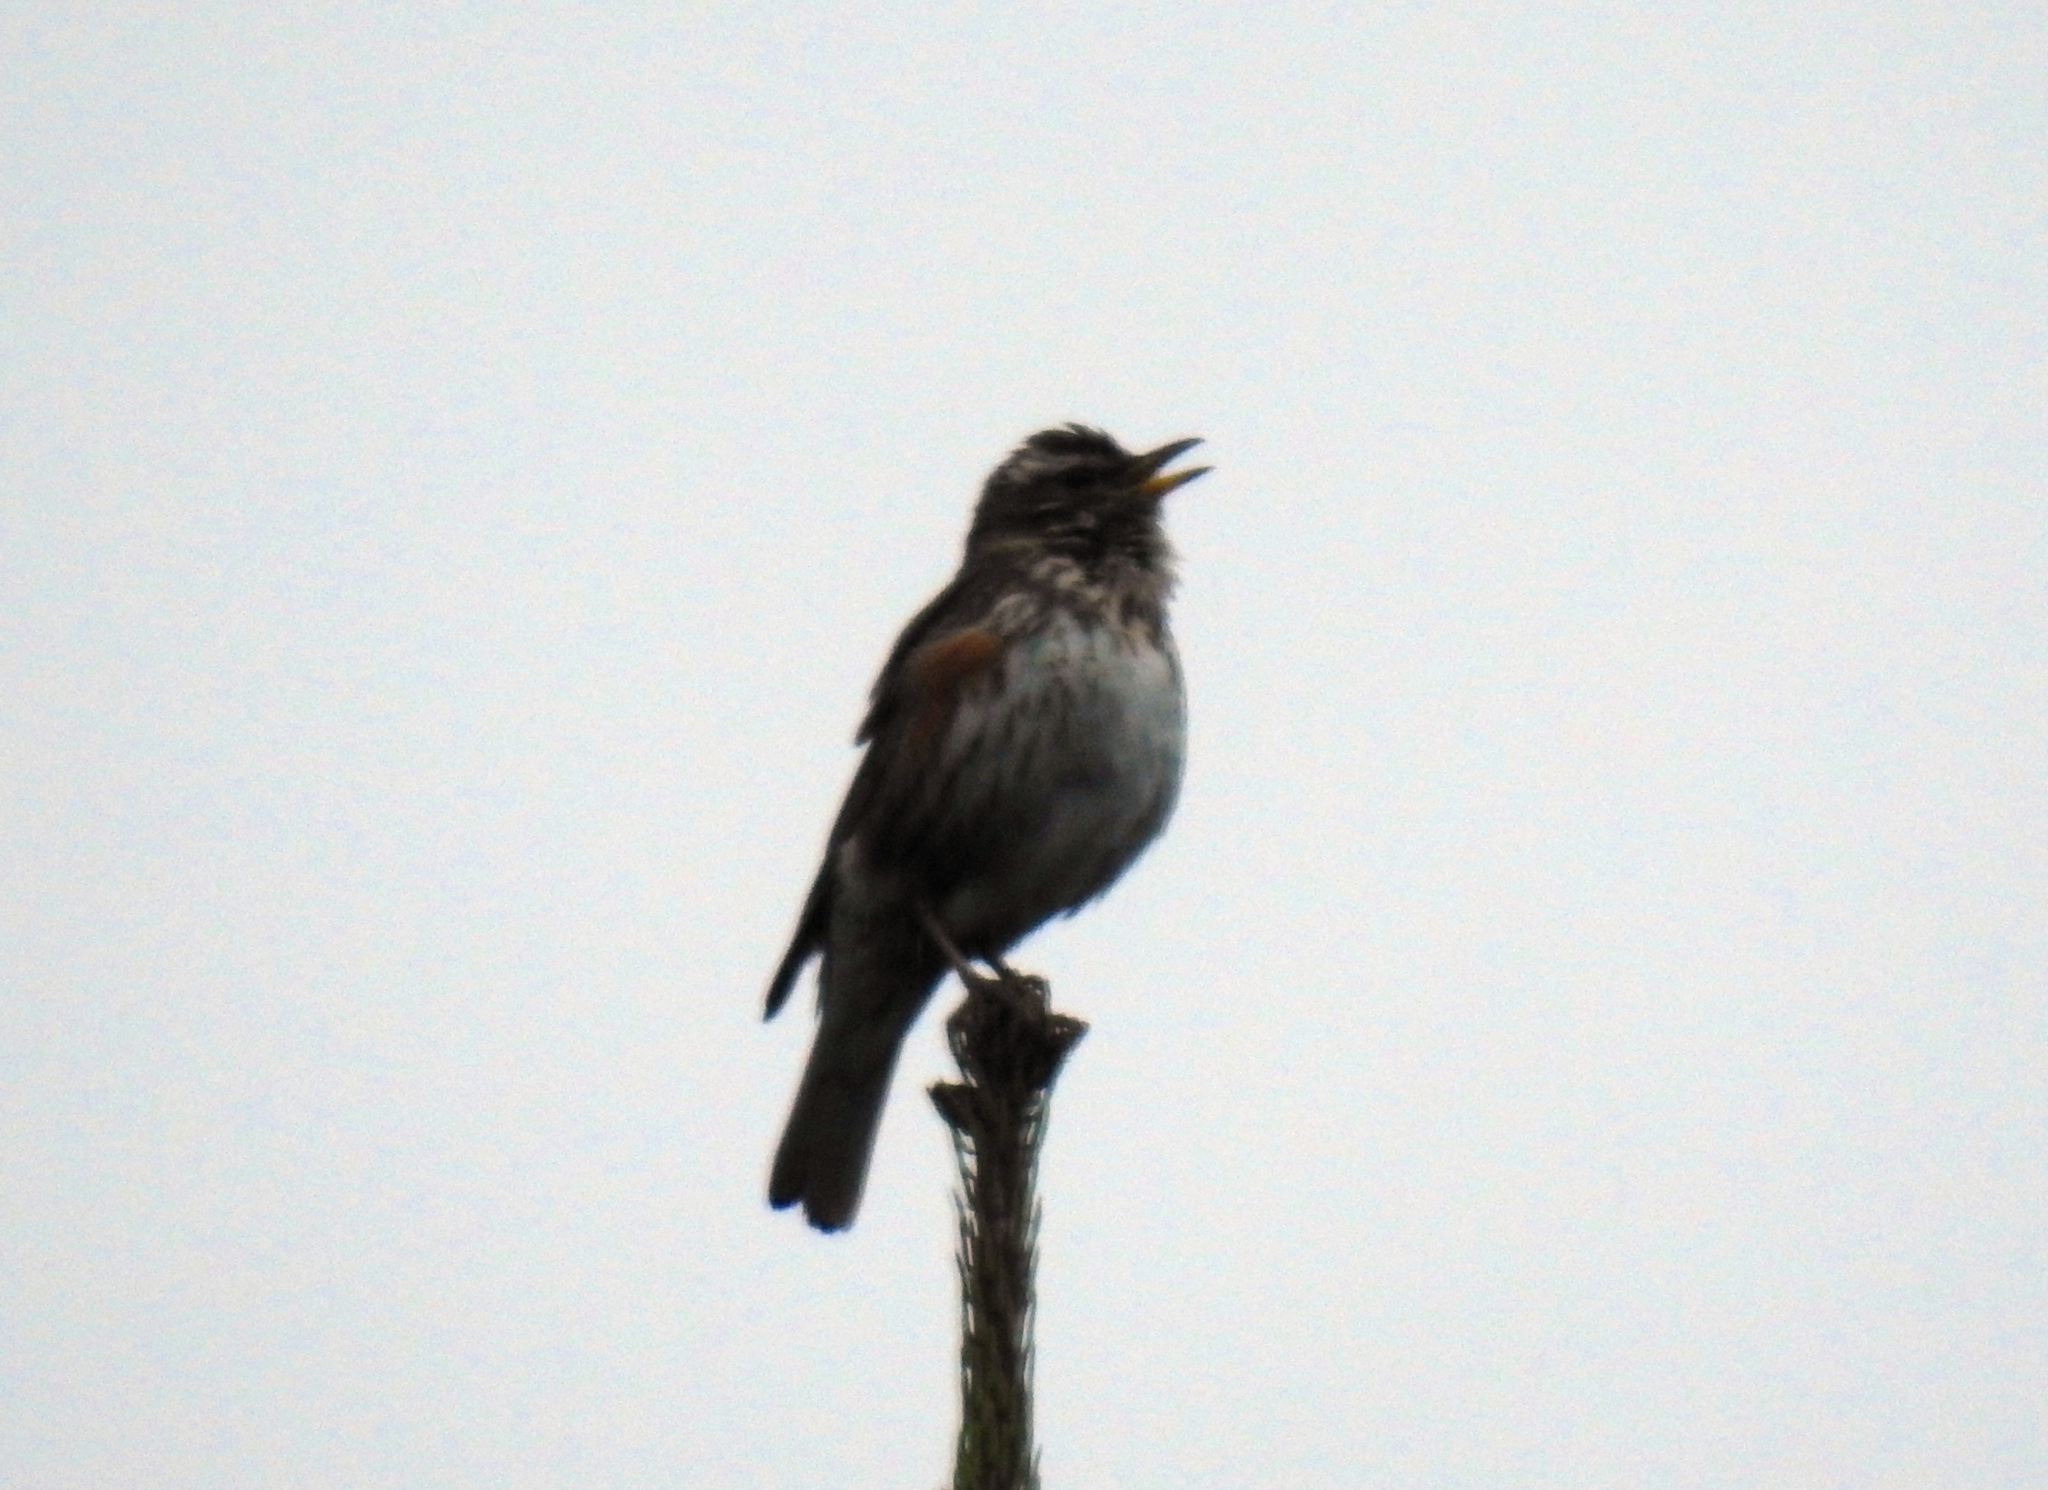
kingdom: Animalia
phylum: Chordata
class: Aves
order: Passeriformes
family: Turdidae
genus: Turdus
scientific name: Turdus iliacus
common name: Redwing
